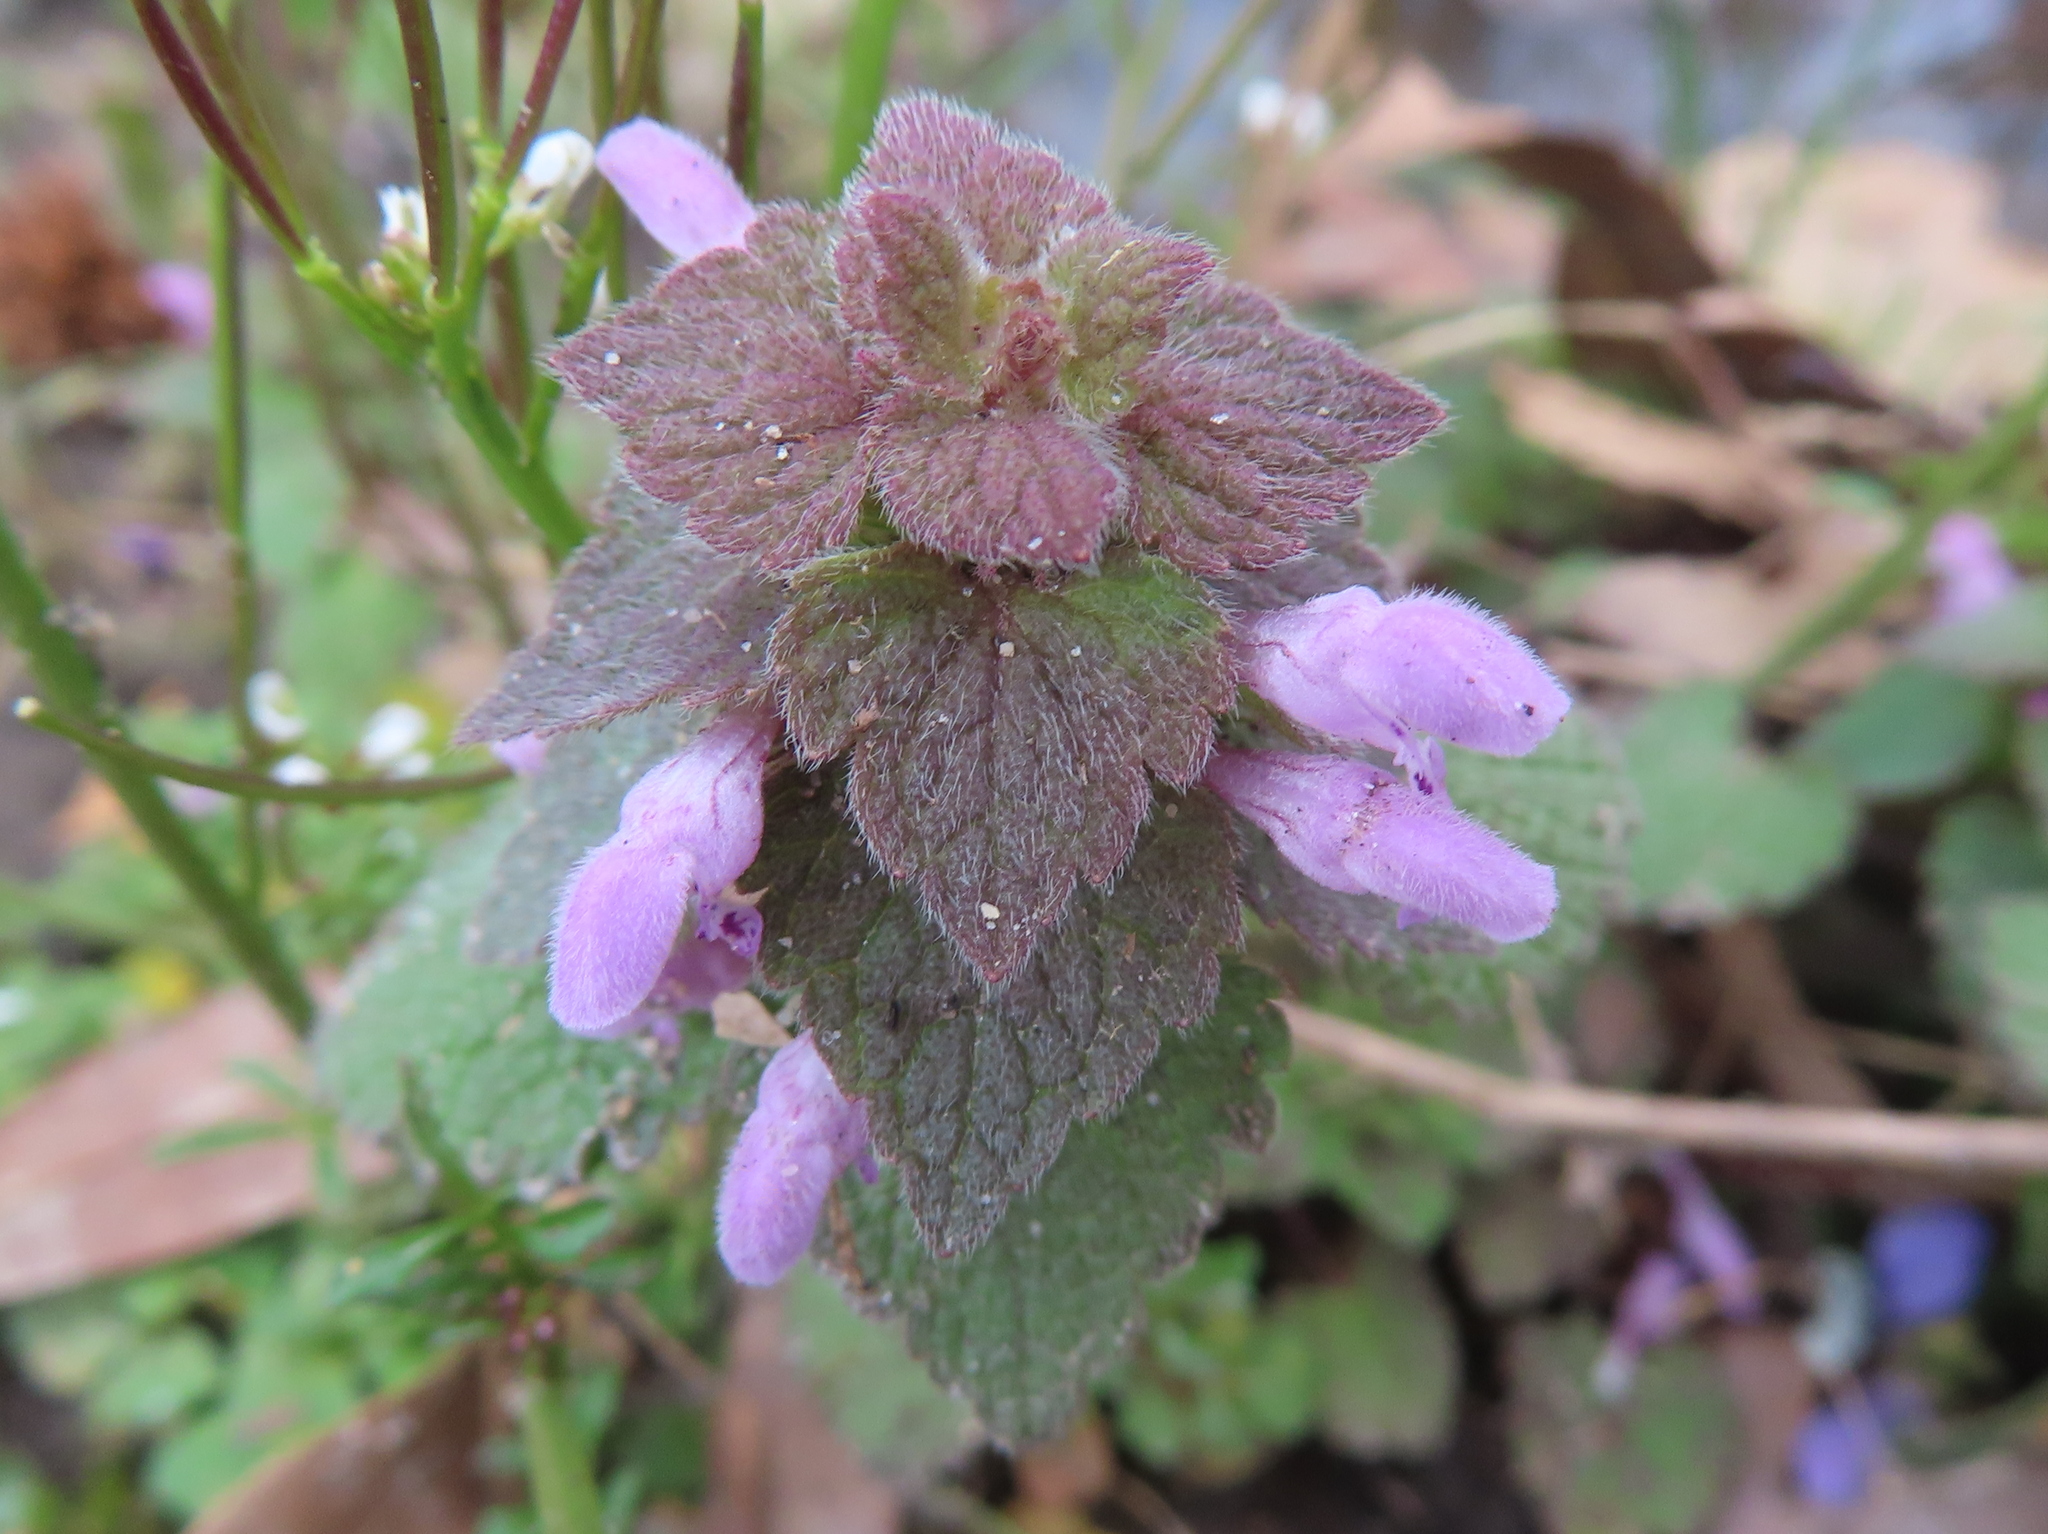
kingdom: Plantae
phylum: Tracheophyta
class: Magnoliopsida
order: Lamiales
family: Lamiaceae
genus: Lamium
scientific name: Lamium purpureum
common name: Red dead-nettle
